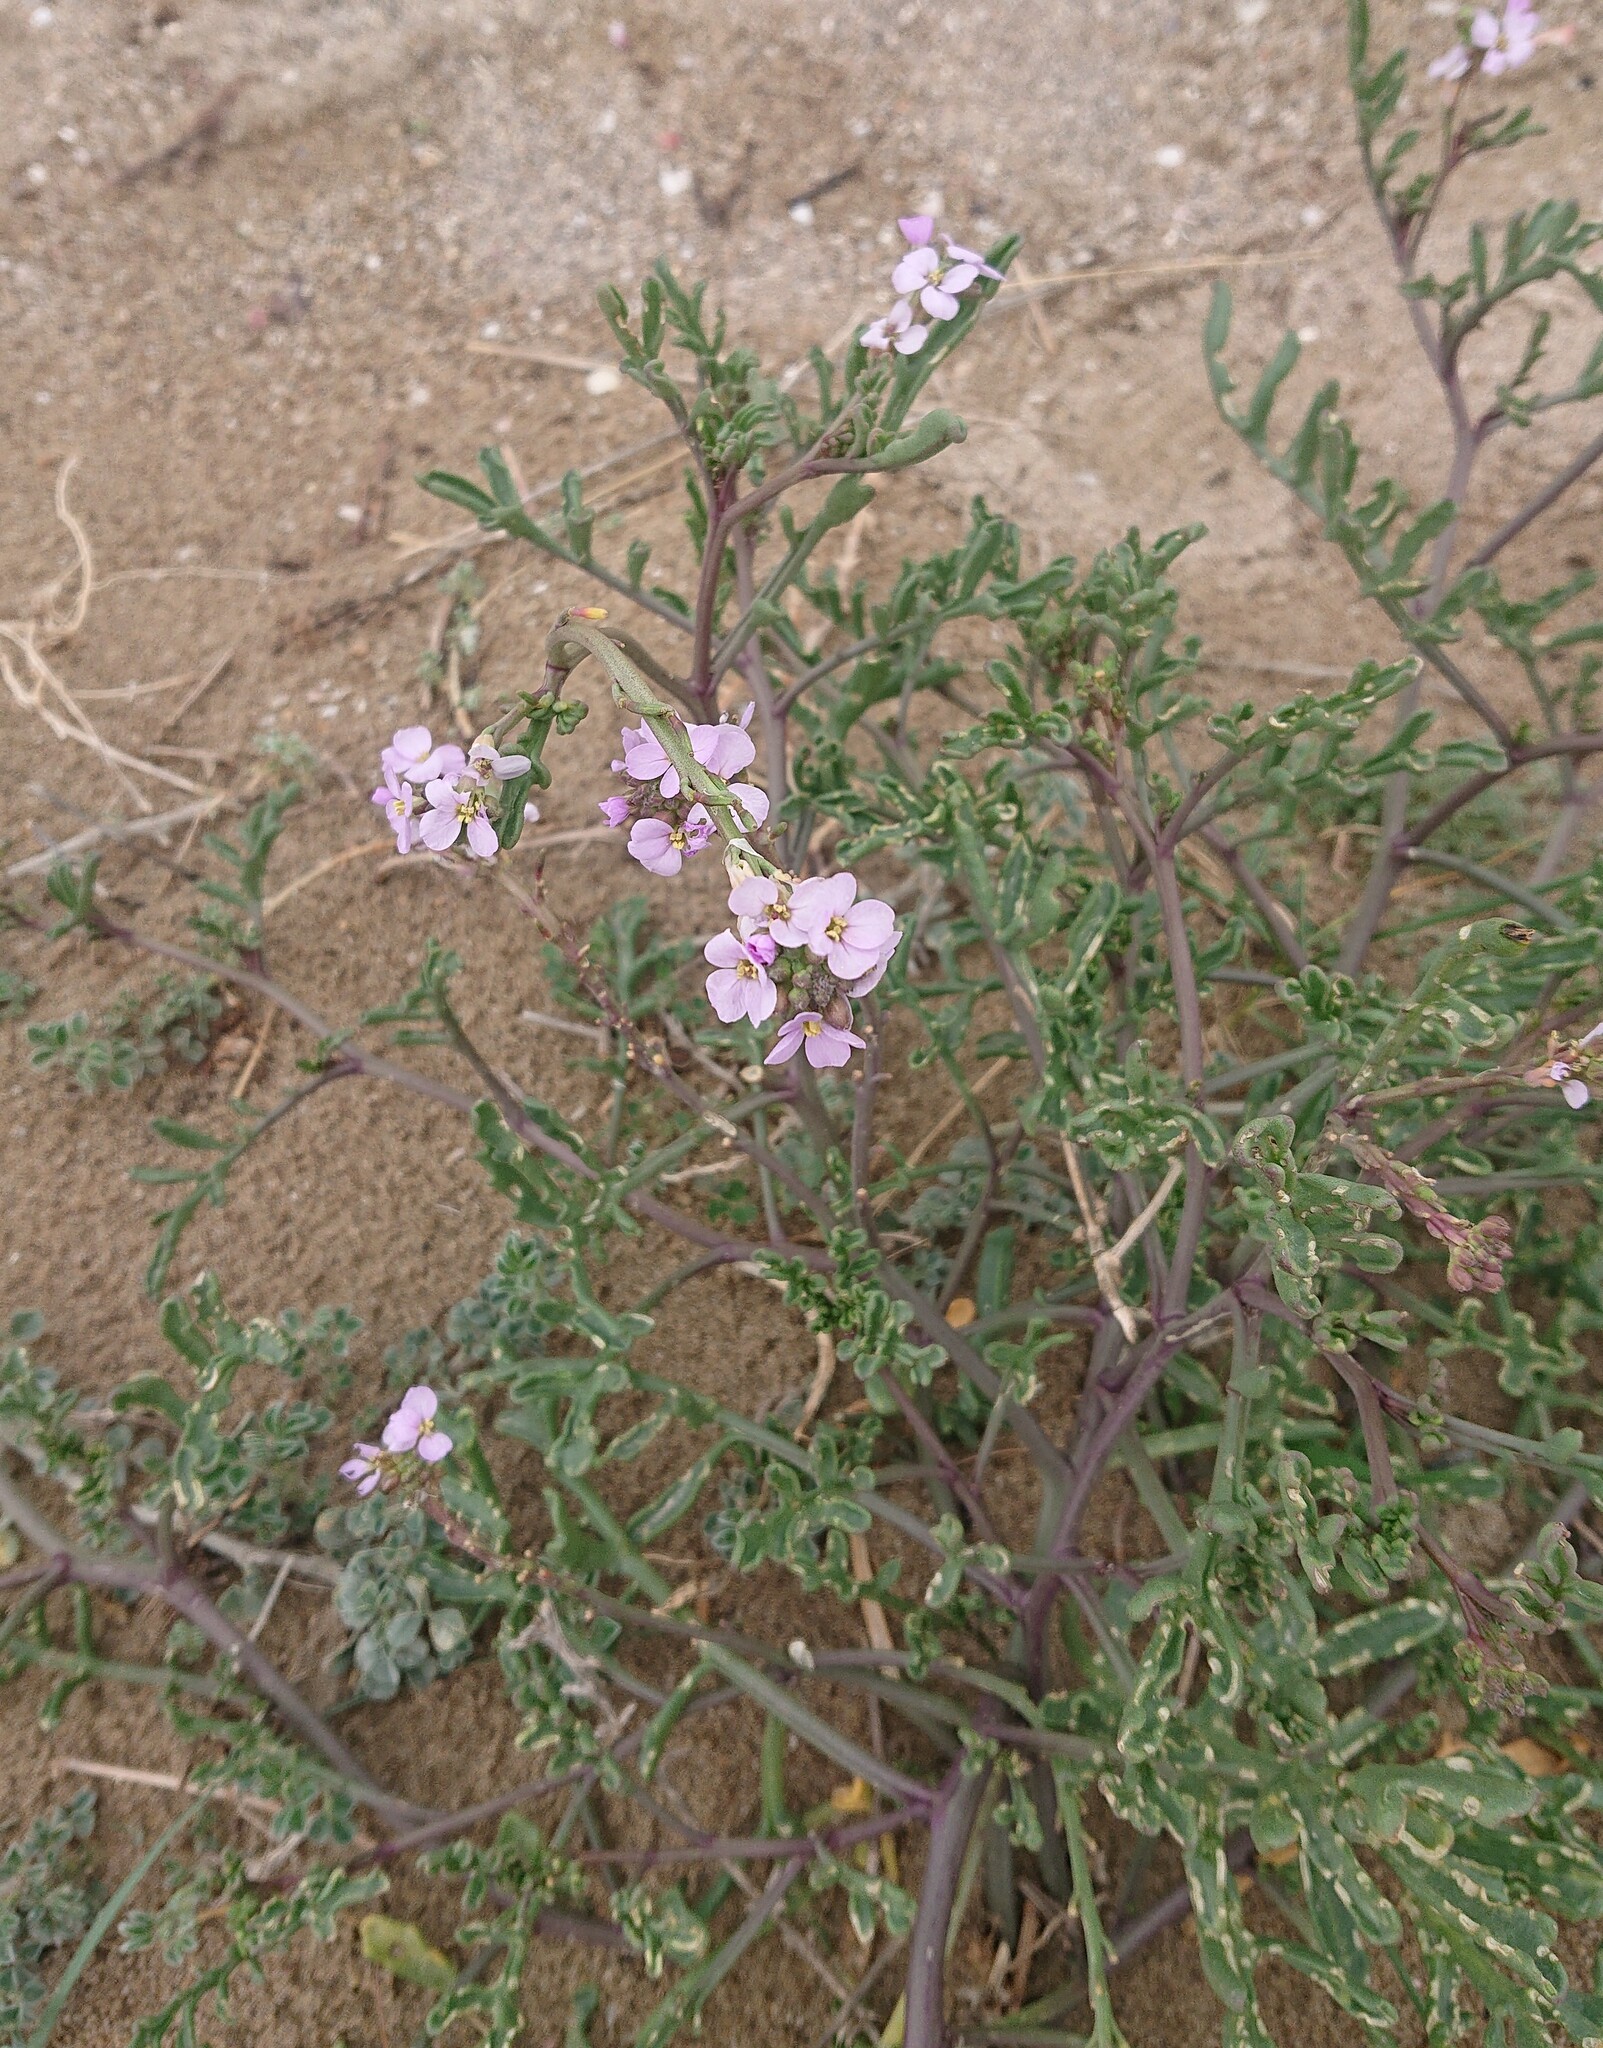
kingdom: Plantae
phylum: Tracheophyta
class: Magnoliopsida
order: Brassicales
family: Brassicaceae
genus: Cakile
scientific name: Cakile maritima
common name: Sea rocket
